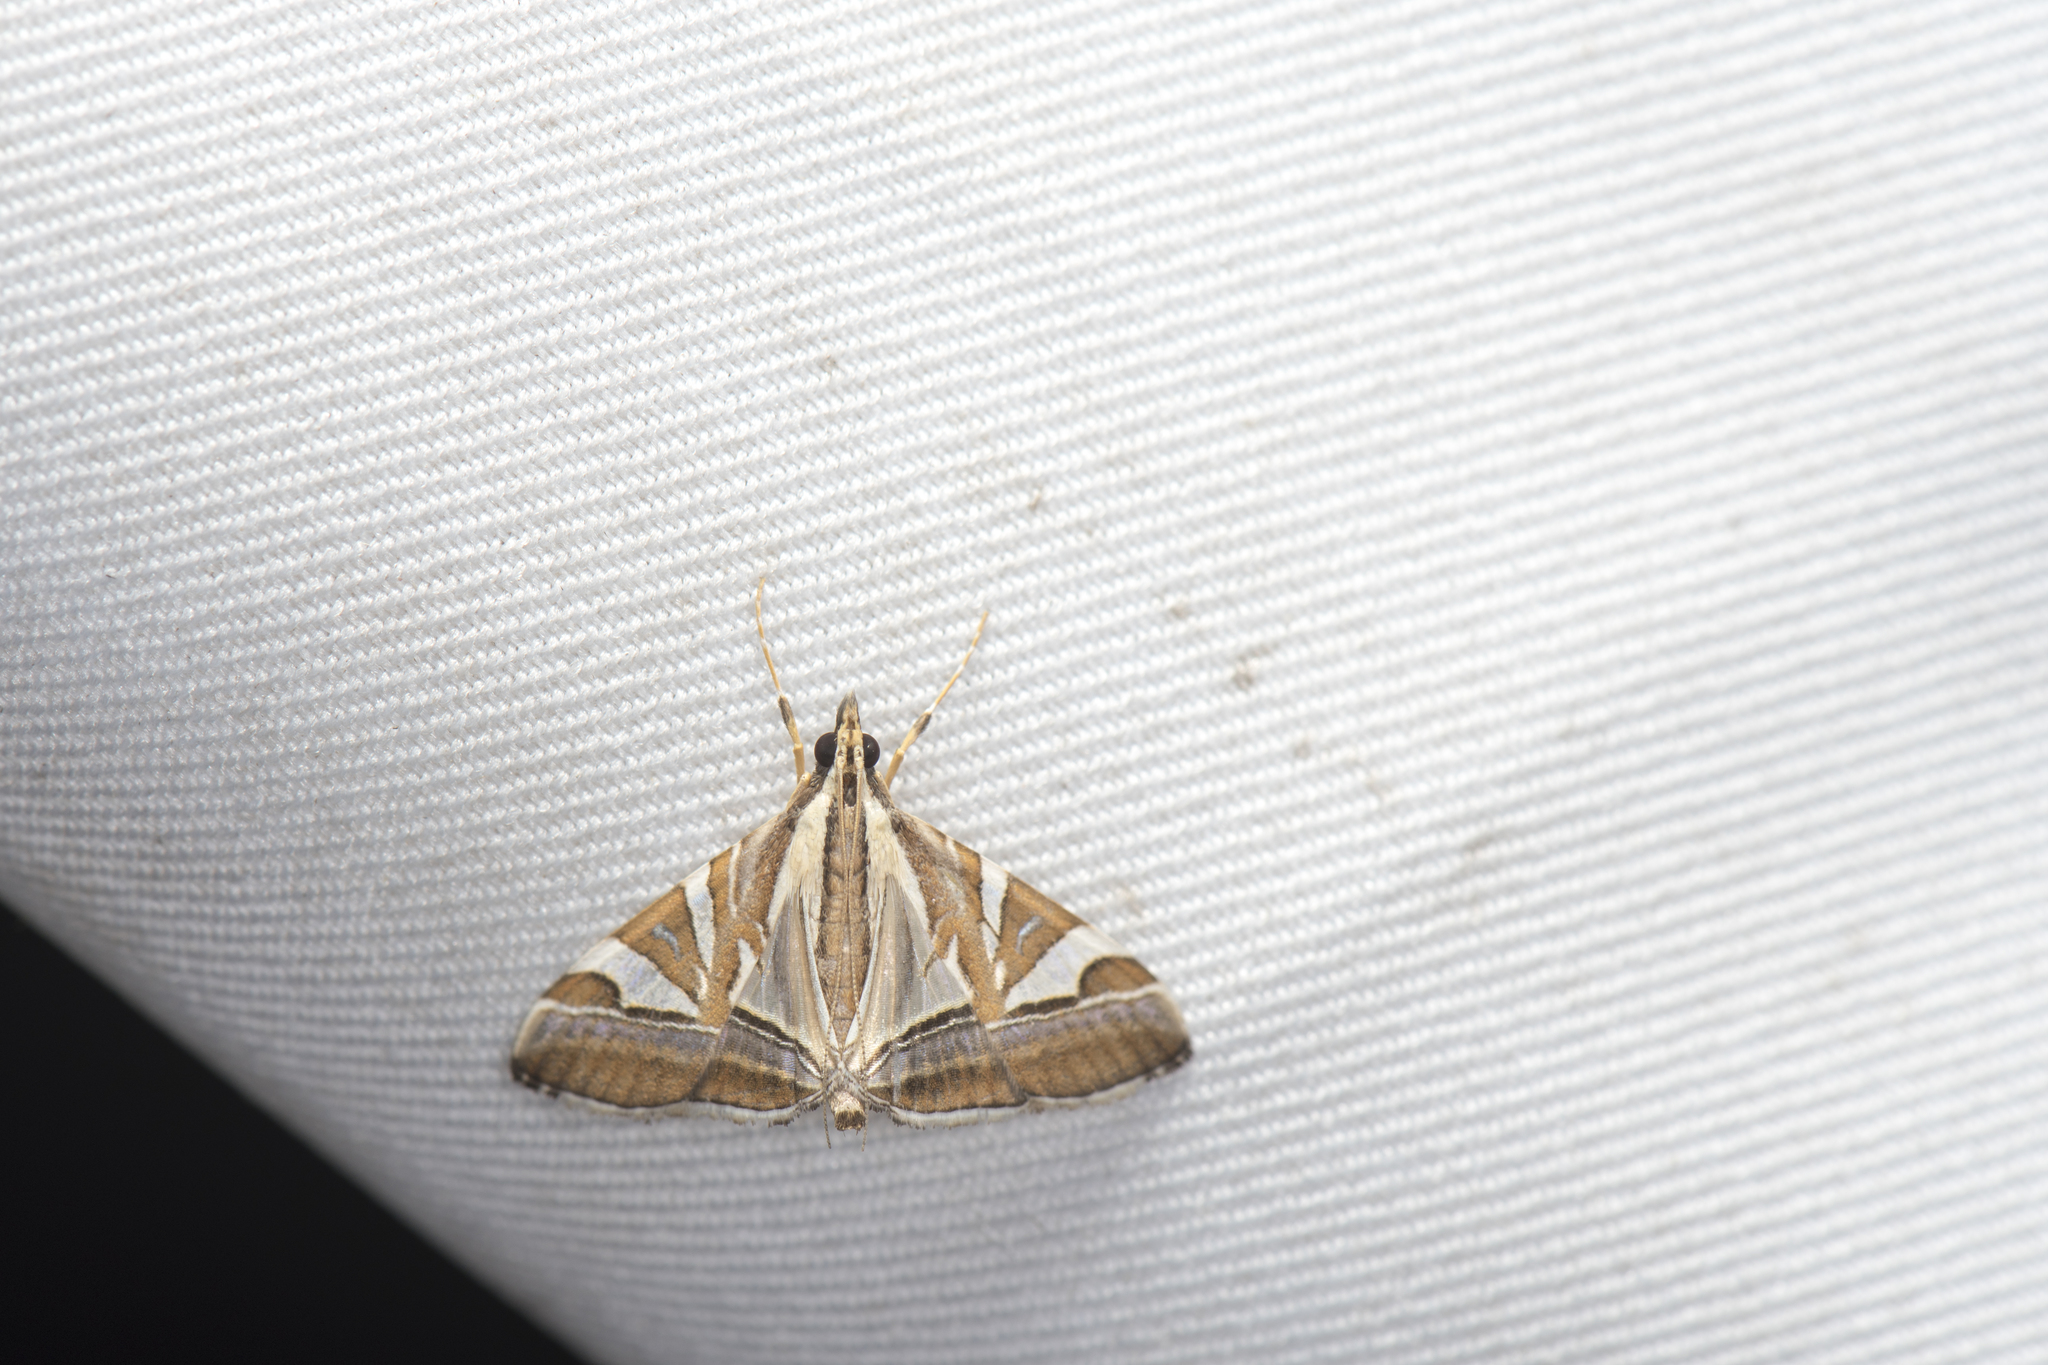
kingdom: Animalia
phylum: Arthropoda
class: Insecta
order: Lepidoptera
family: Crambidae
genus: Agrioglypta
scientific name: Agrioglypta itysalis
